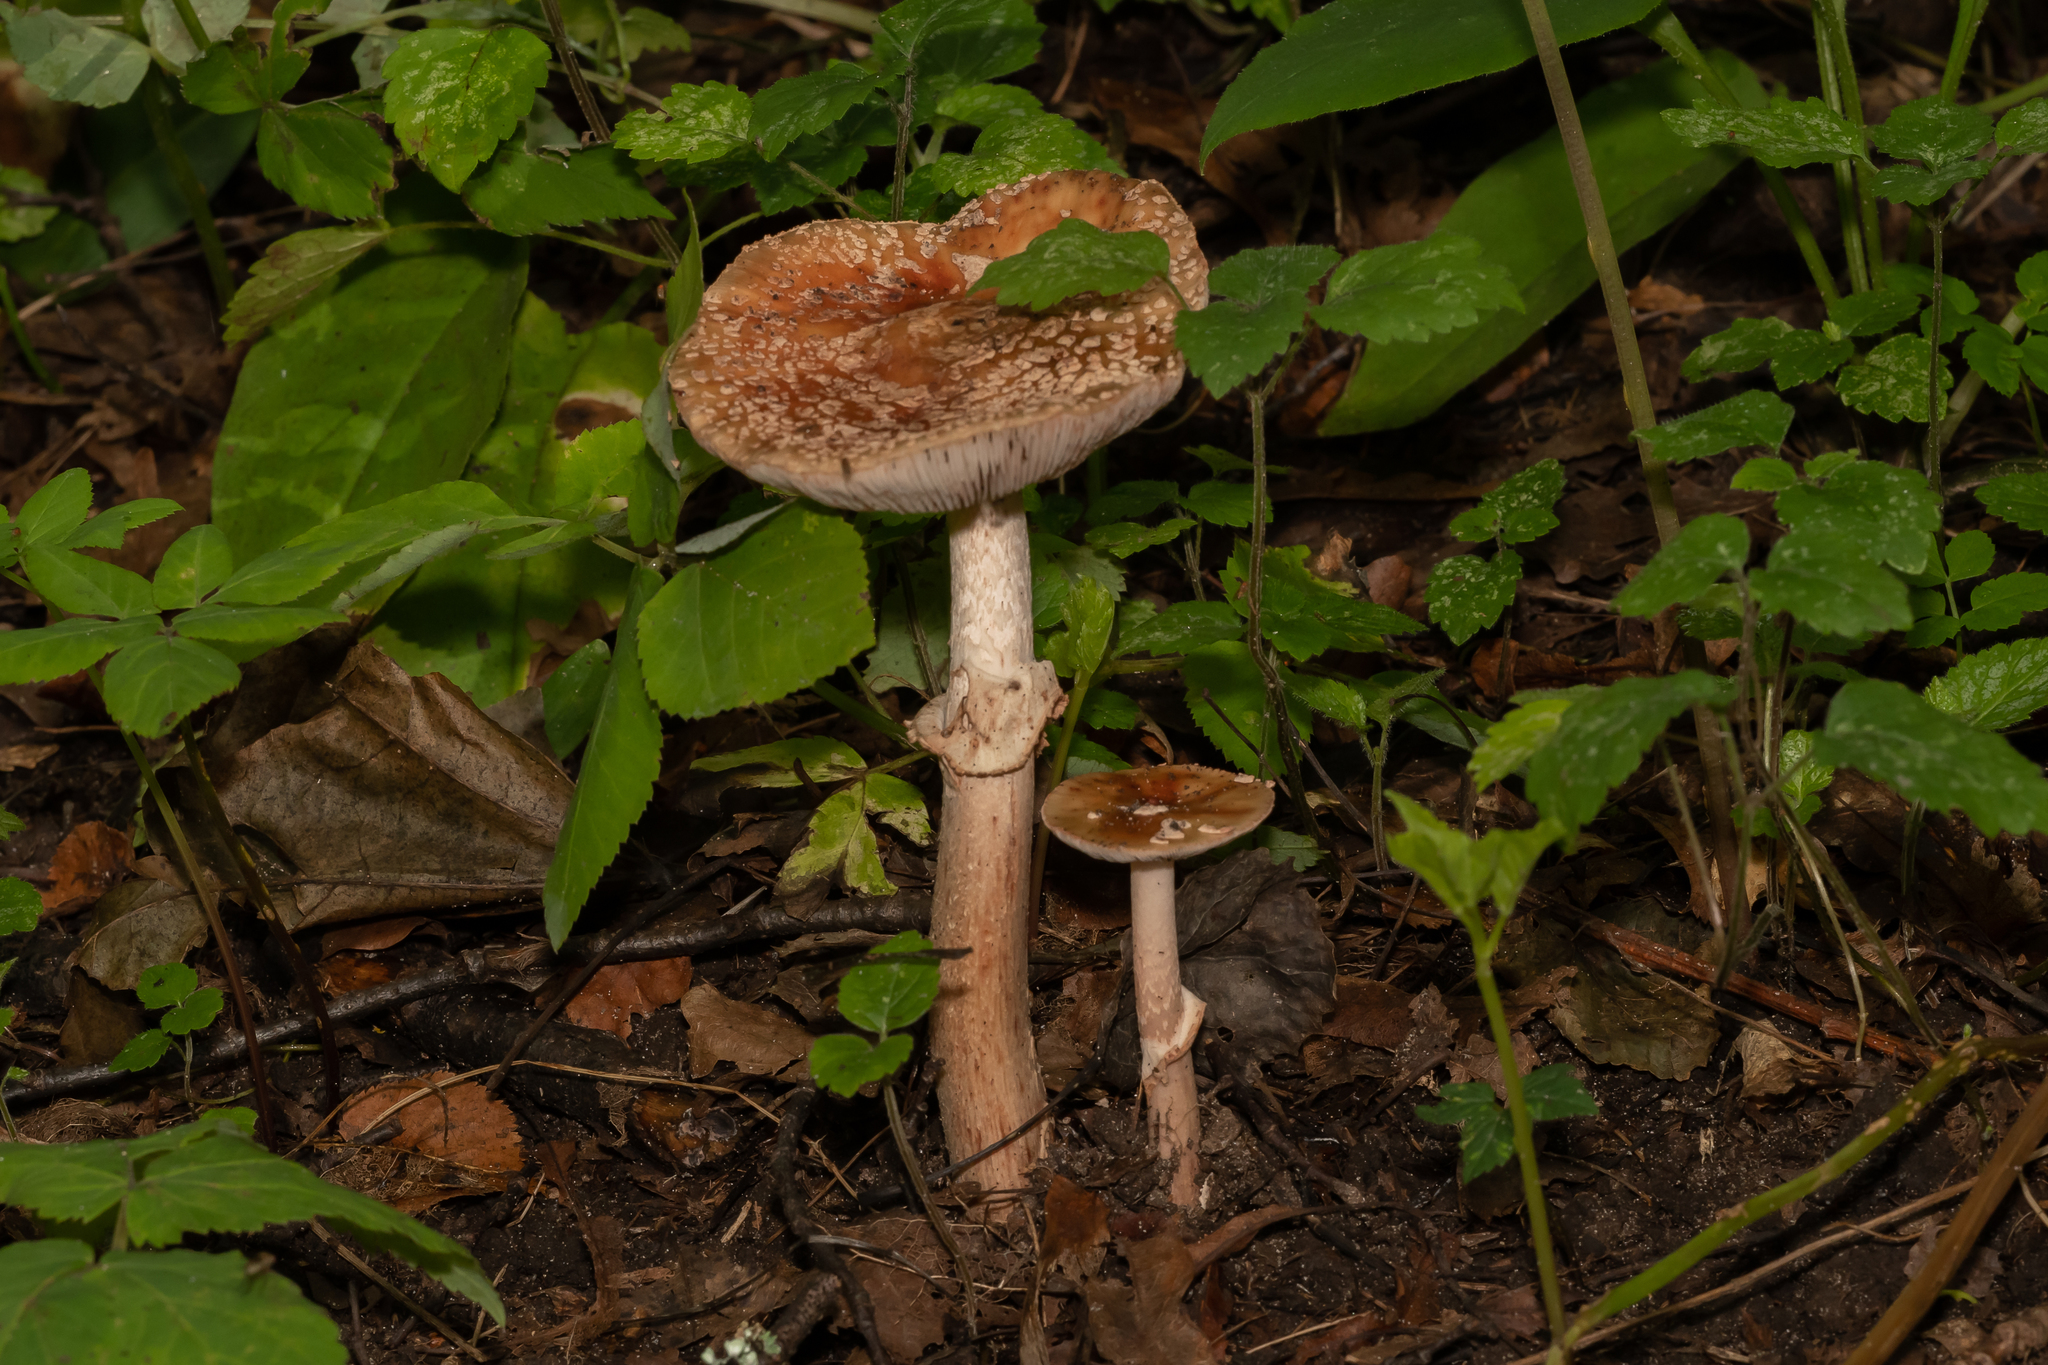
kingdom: Fungi
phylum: Basidiomycota
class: Agaricomycetes
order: Agaricales
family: Amanitaceae
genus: Amanita
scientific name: Amanita rubescens
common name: Blusher
